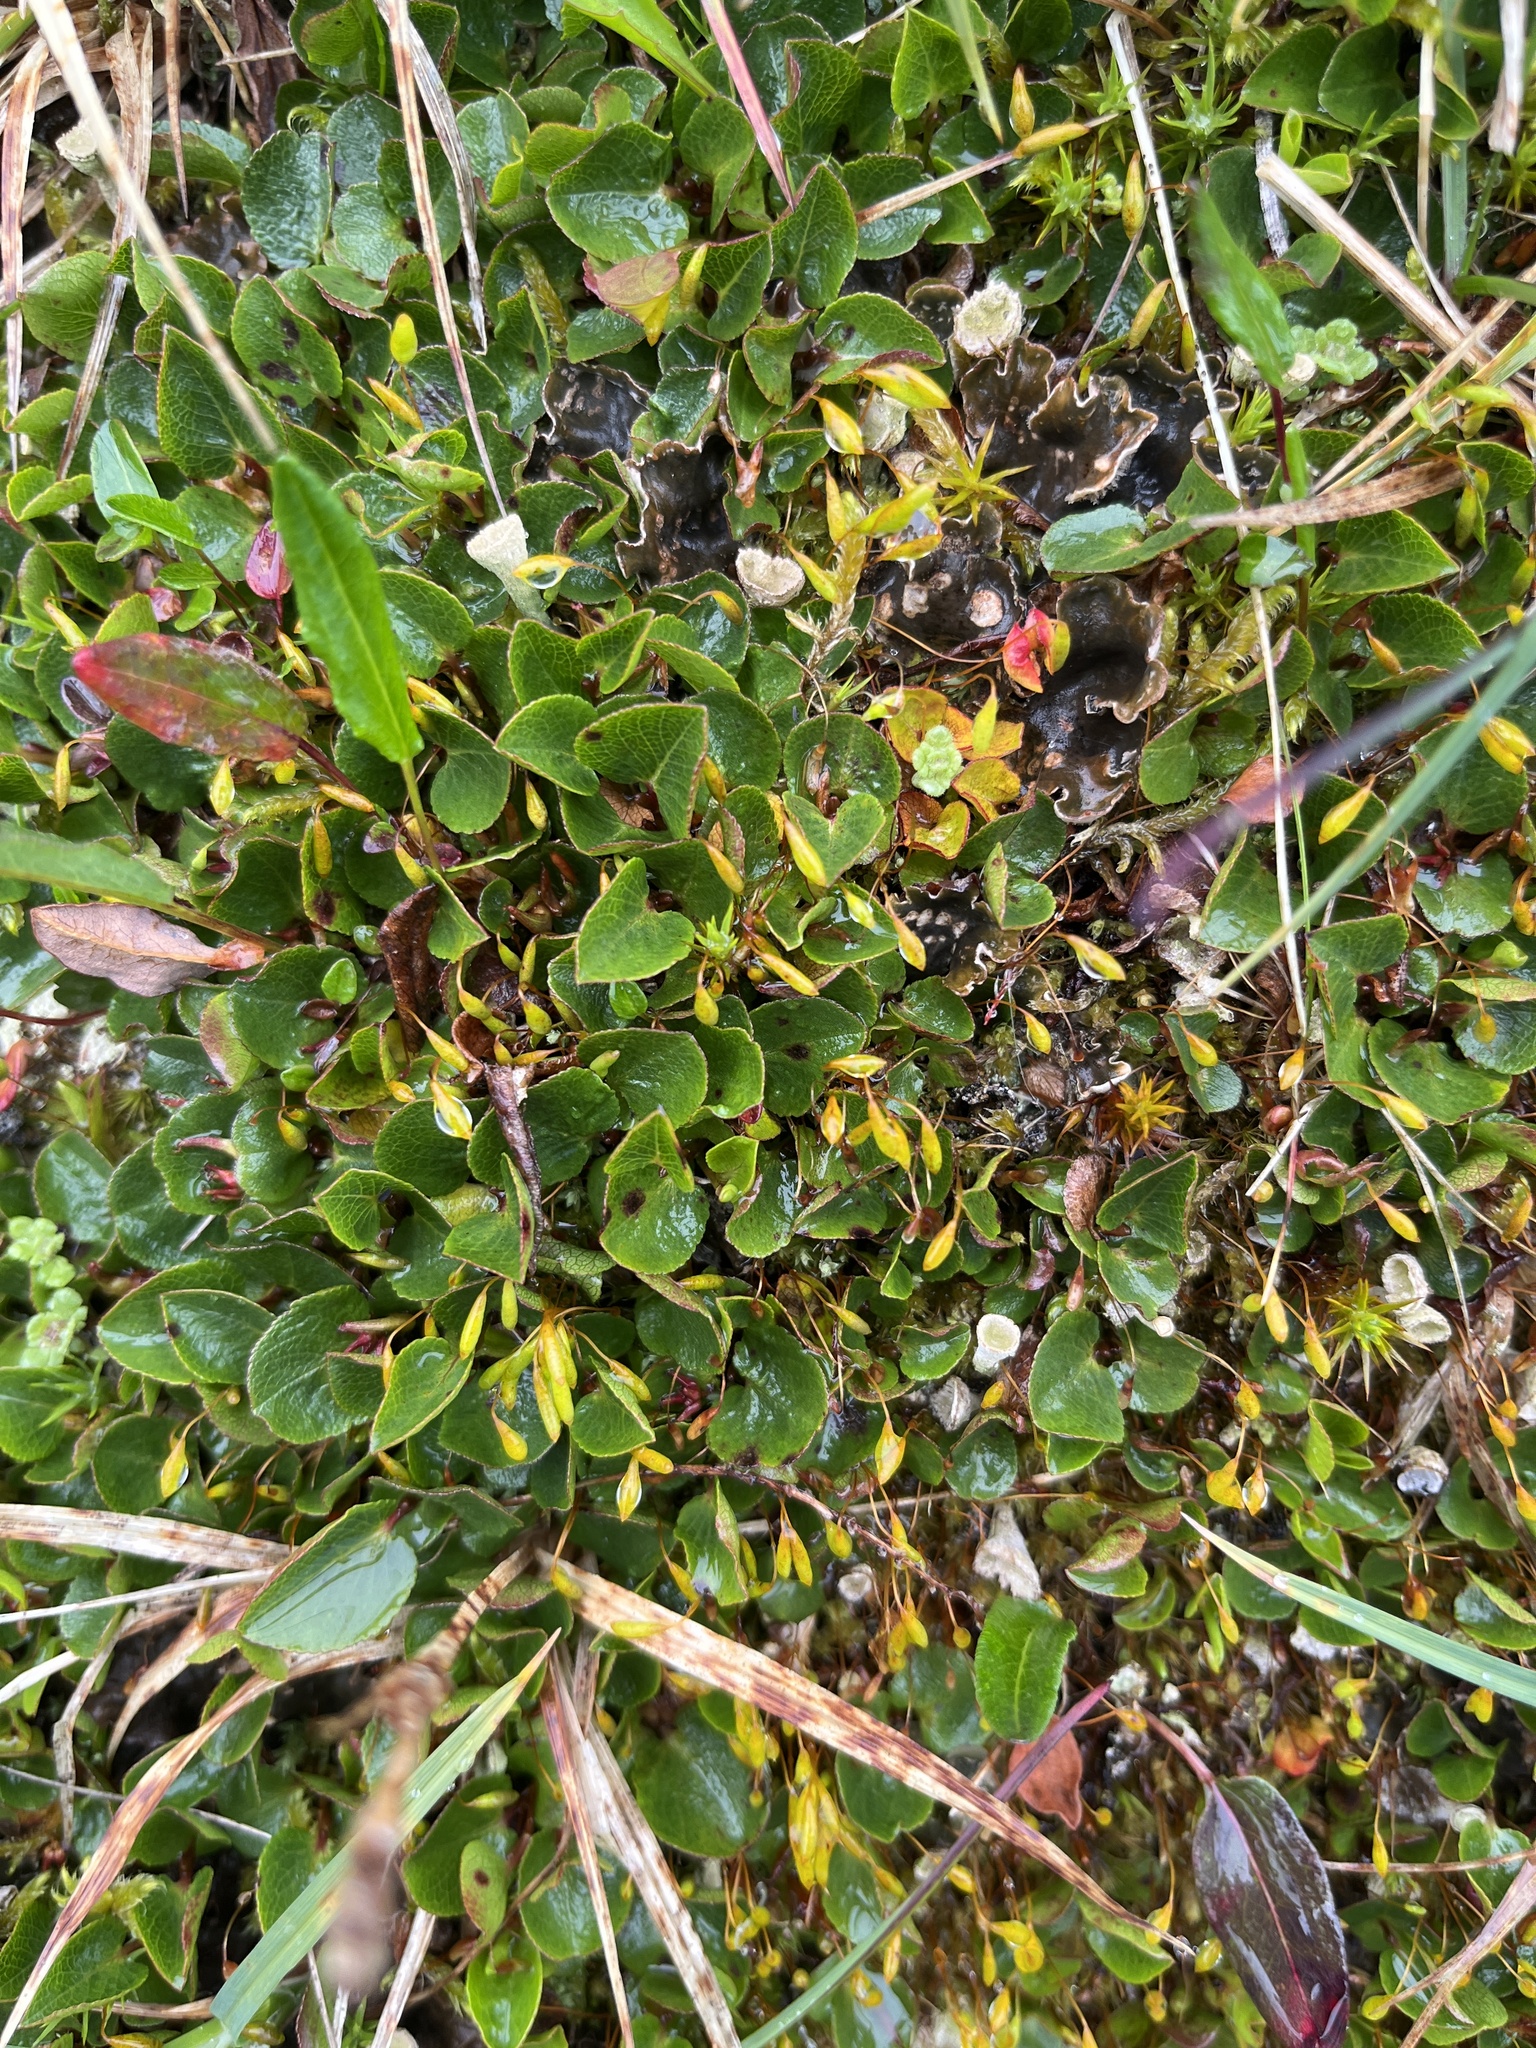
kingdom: Plantae
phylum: Tracheophyta
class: Magnoliopsida
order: Malpighiales
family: Salicaceae
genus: Salix
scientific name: Salix herbacea
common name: Dwarf willow
